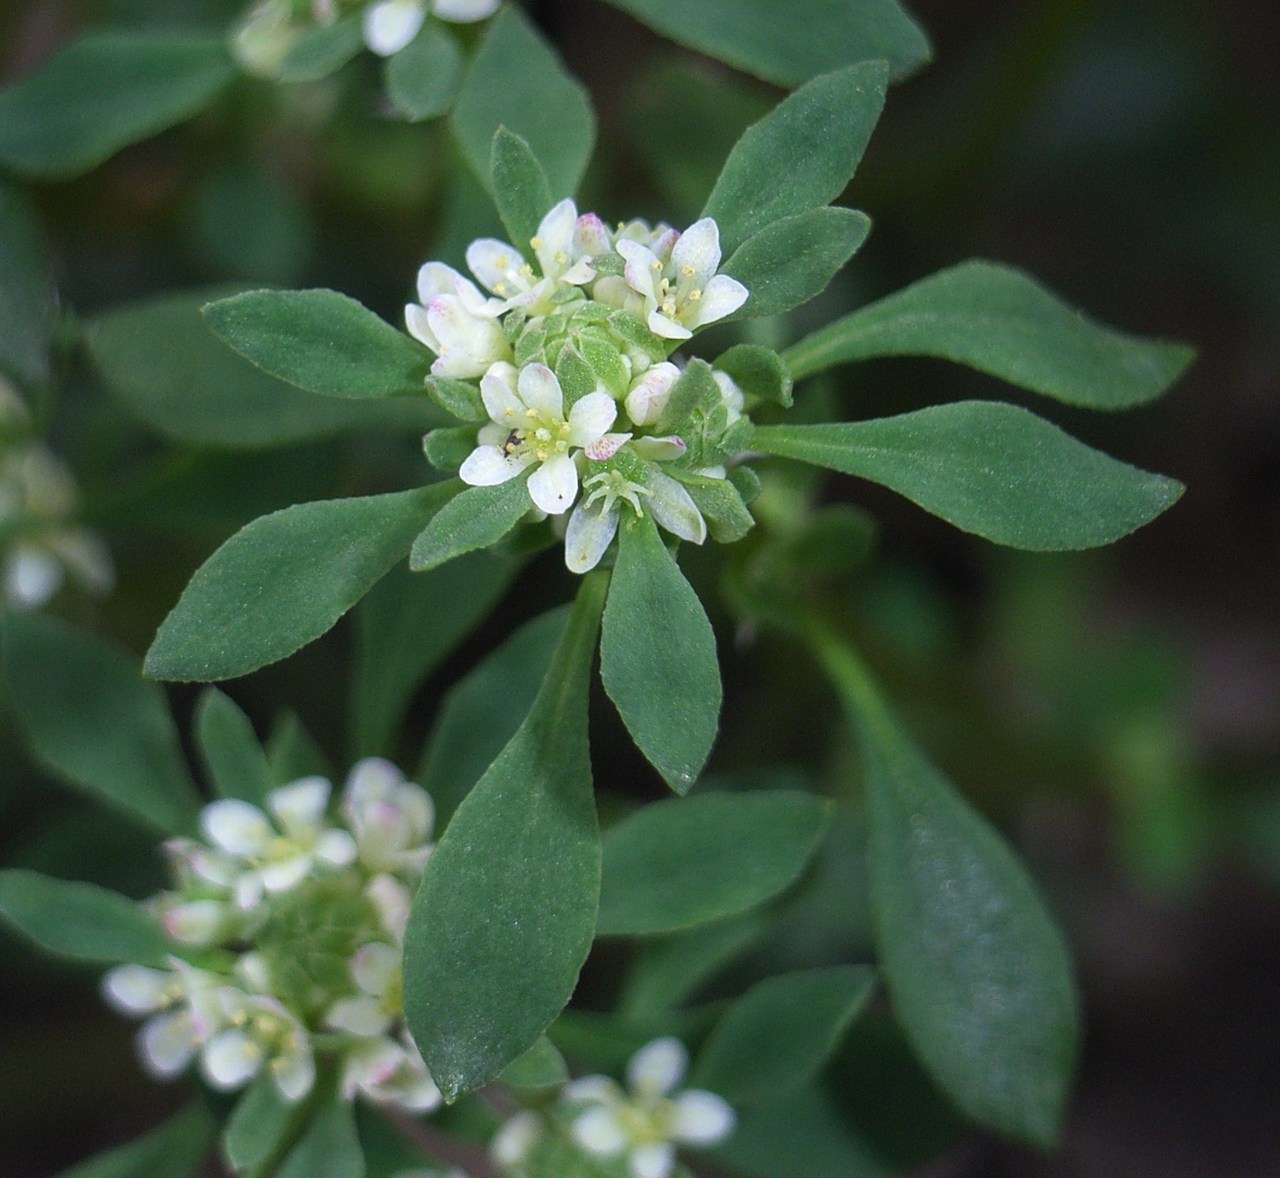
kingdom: Plantae
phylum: Tracheophyta
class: Magnoliopsida
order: Malpighiales
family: Phyllanthaceae
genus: Poranthera
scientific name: Poranthera microphylla
